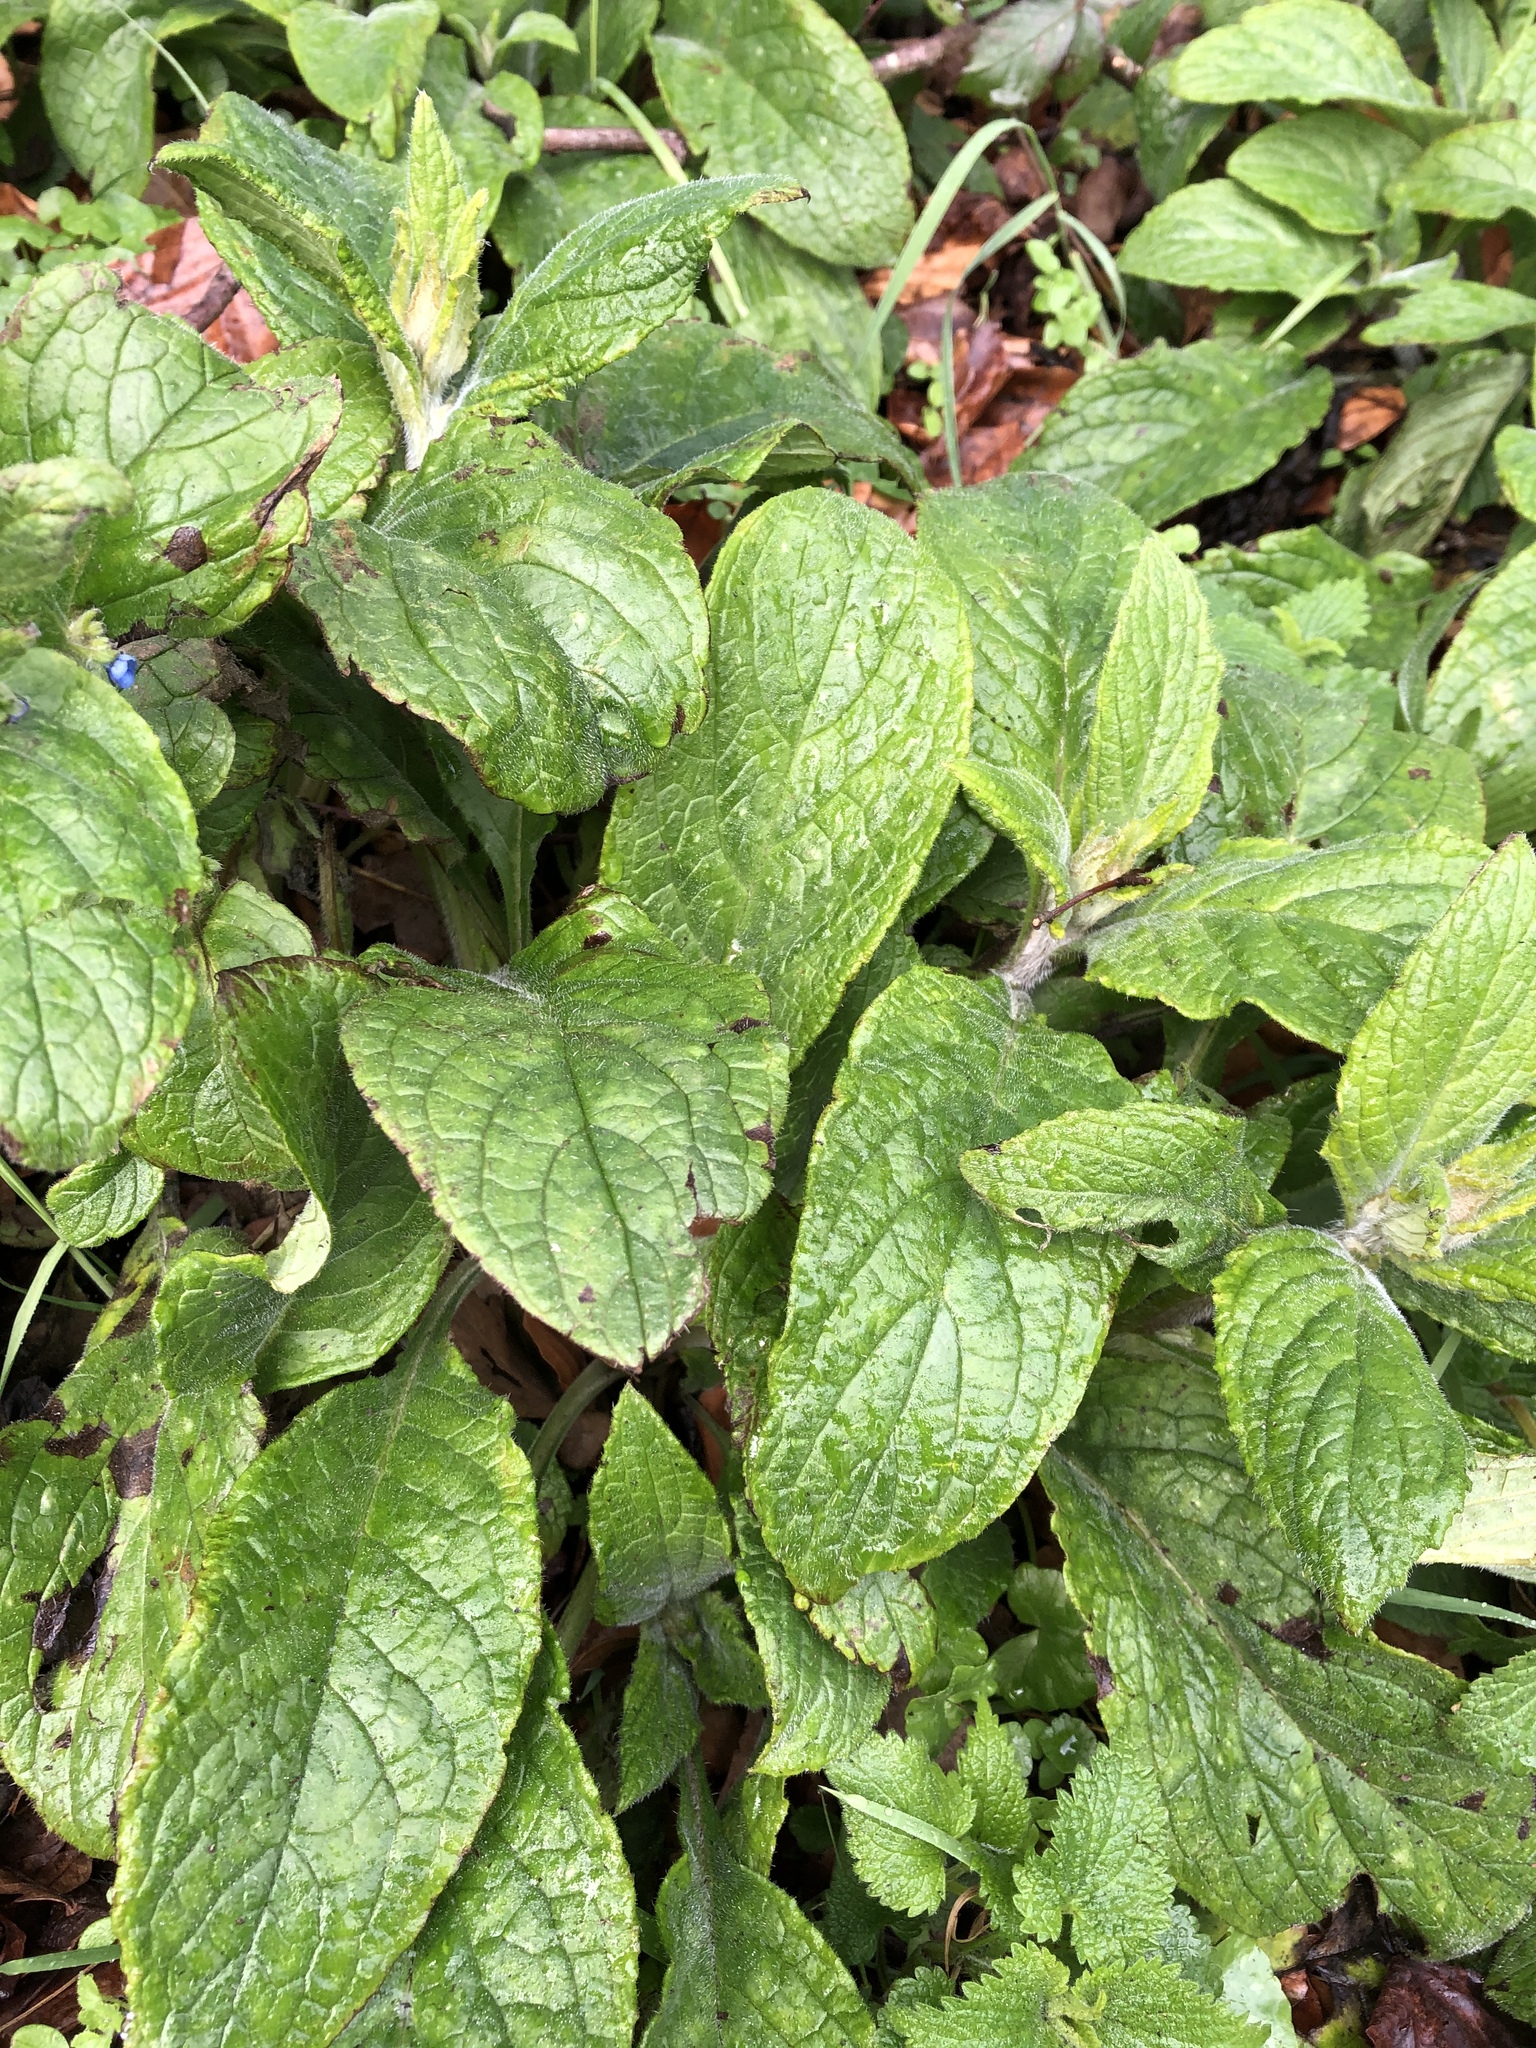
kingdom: Plantae
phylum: Tracheophyta
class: Magnoliopsida
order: Boraginales
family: Boraginaceae
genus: Pentaglottis
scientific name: Pentaglottis sempervirens
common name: Green alkanet
